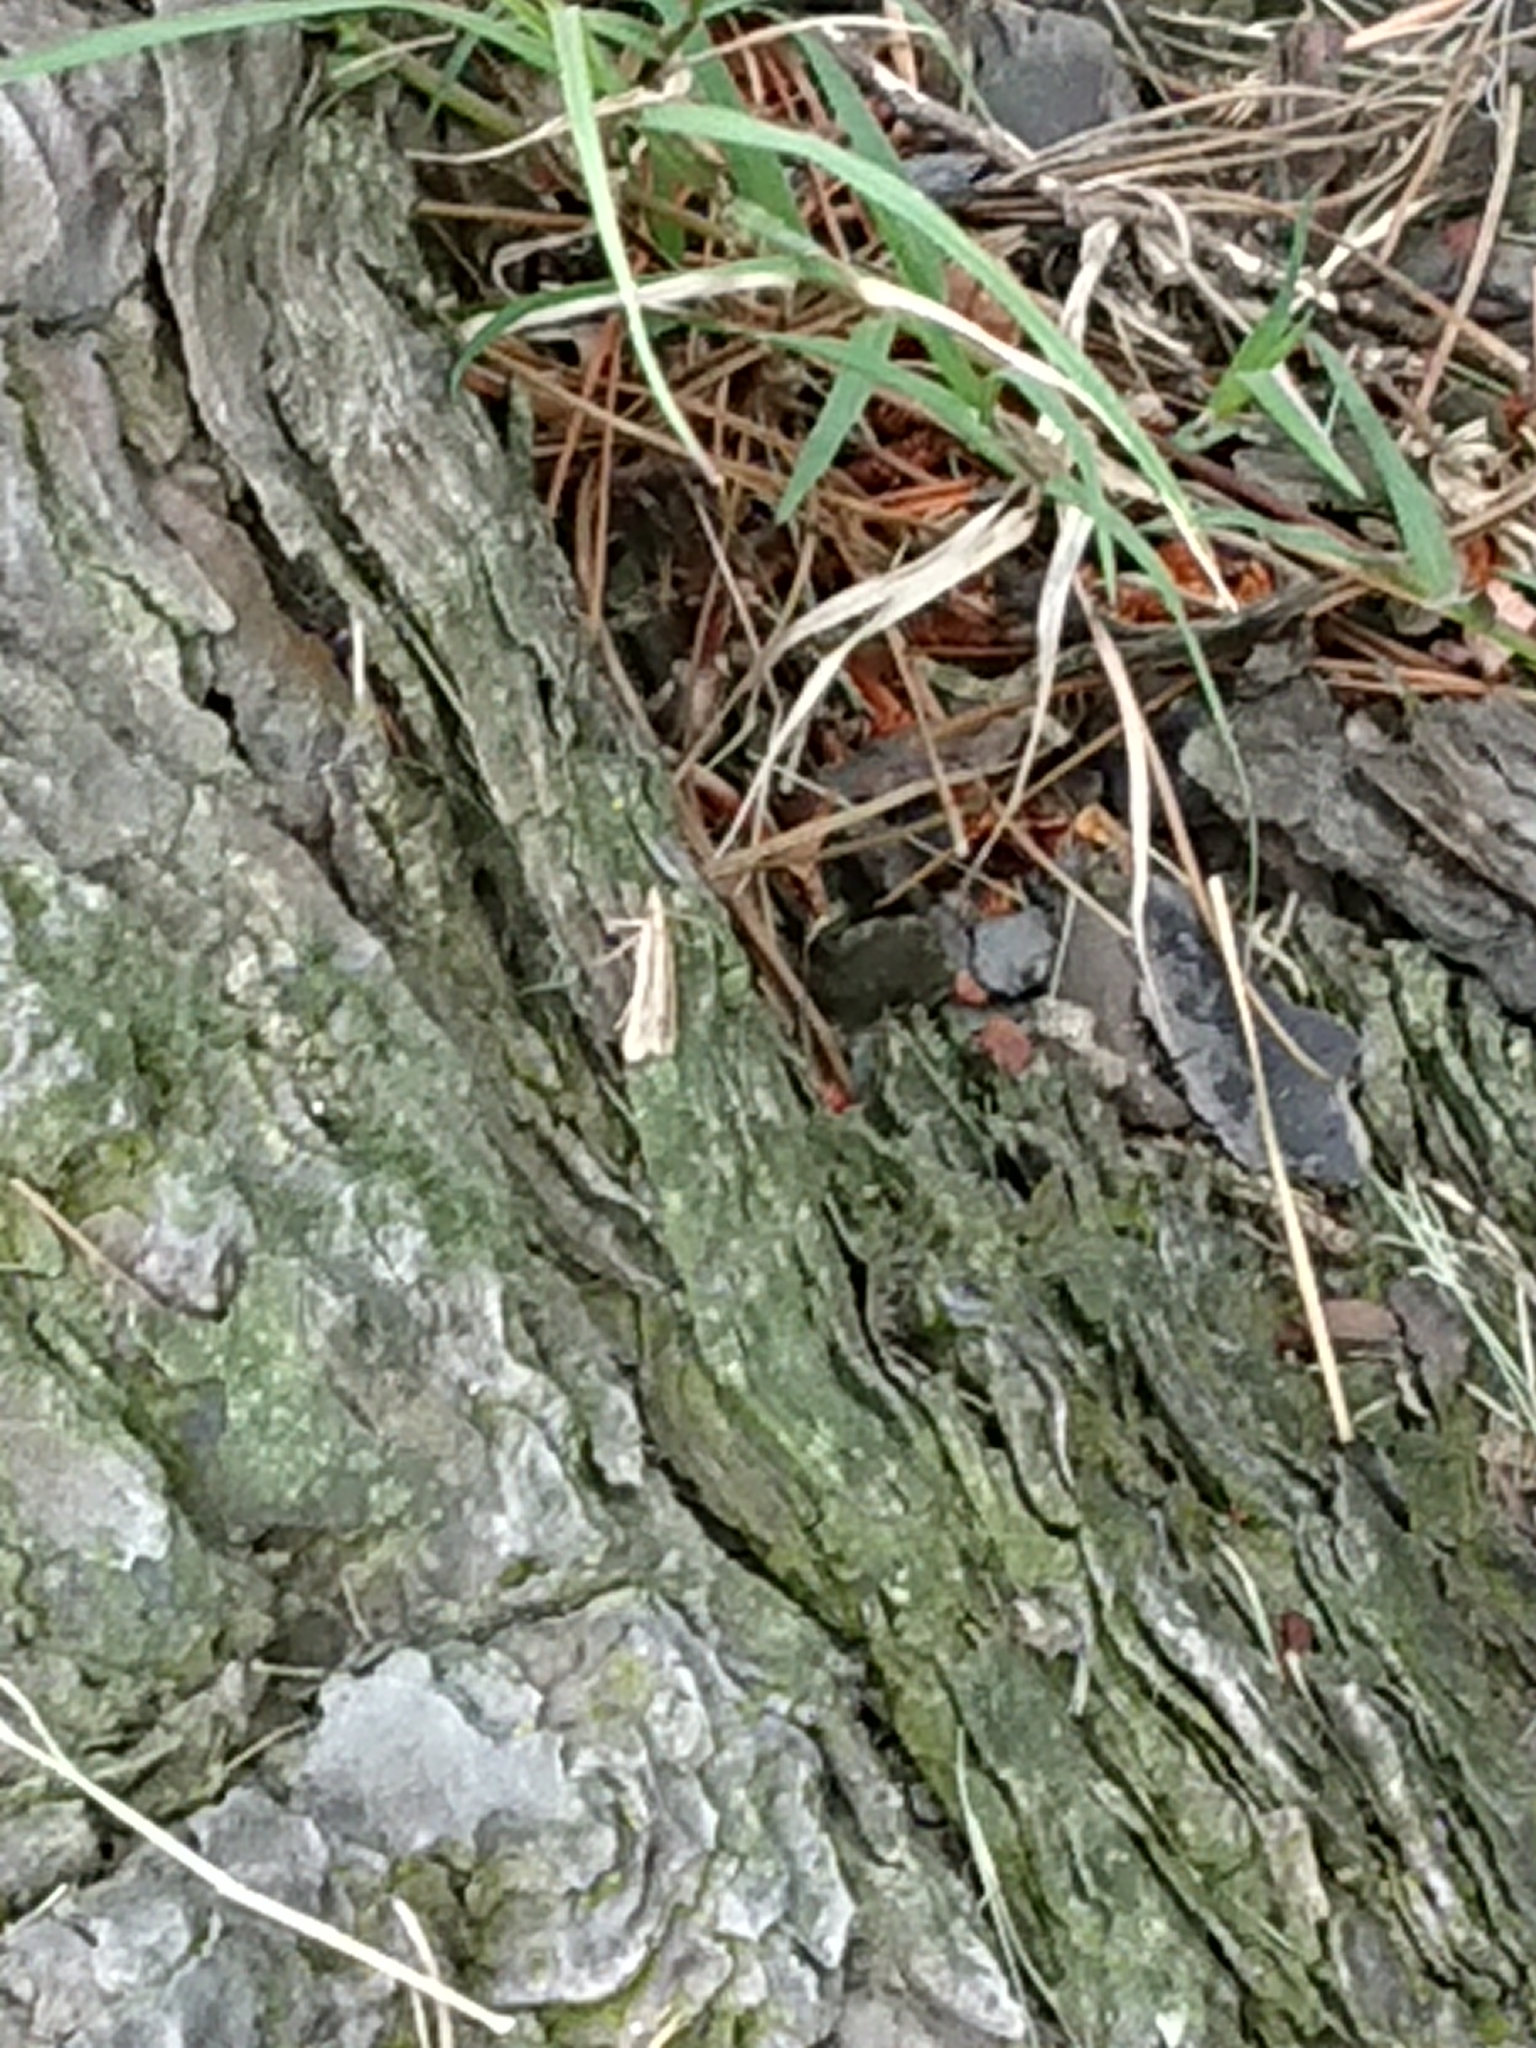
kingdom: Animalia
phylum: Arthropoda
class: Insecta
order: Lepidoptera
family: Crambidae
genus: Eudonia
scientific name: Eudonia sabulosella
